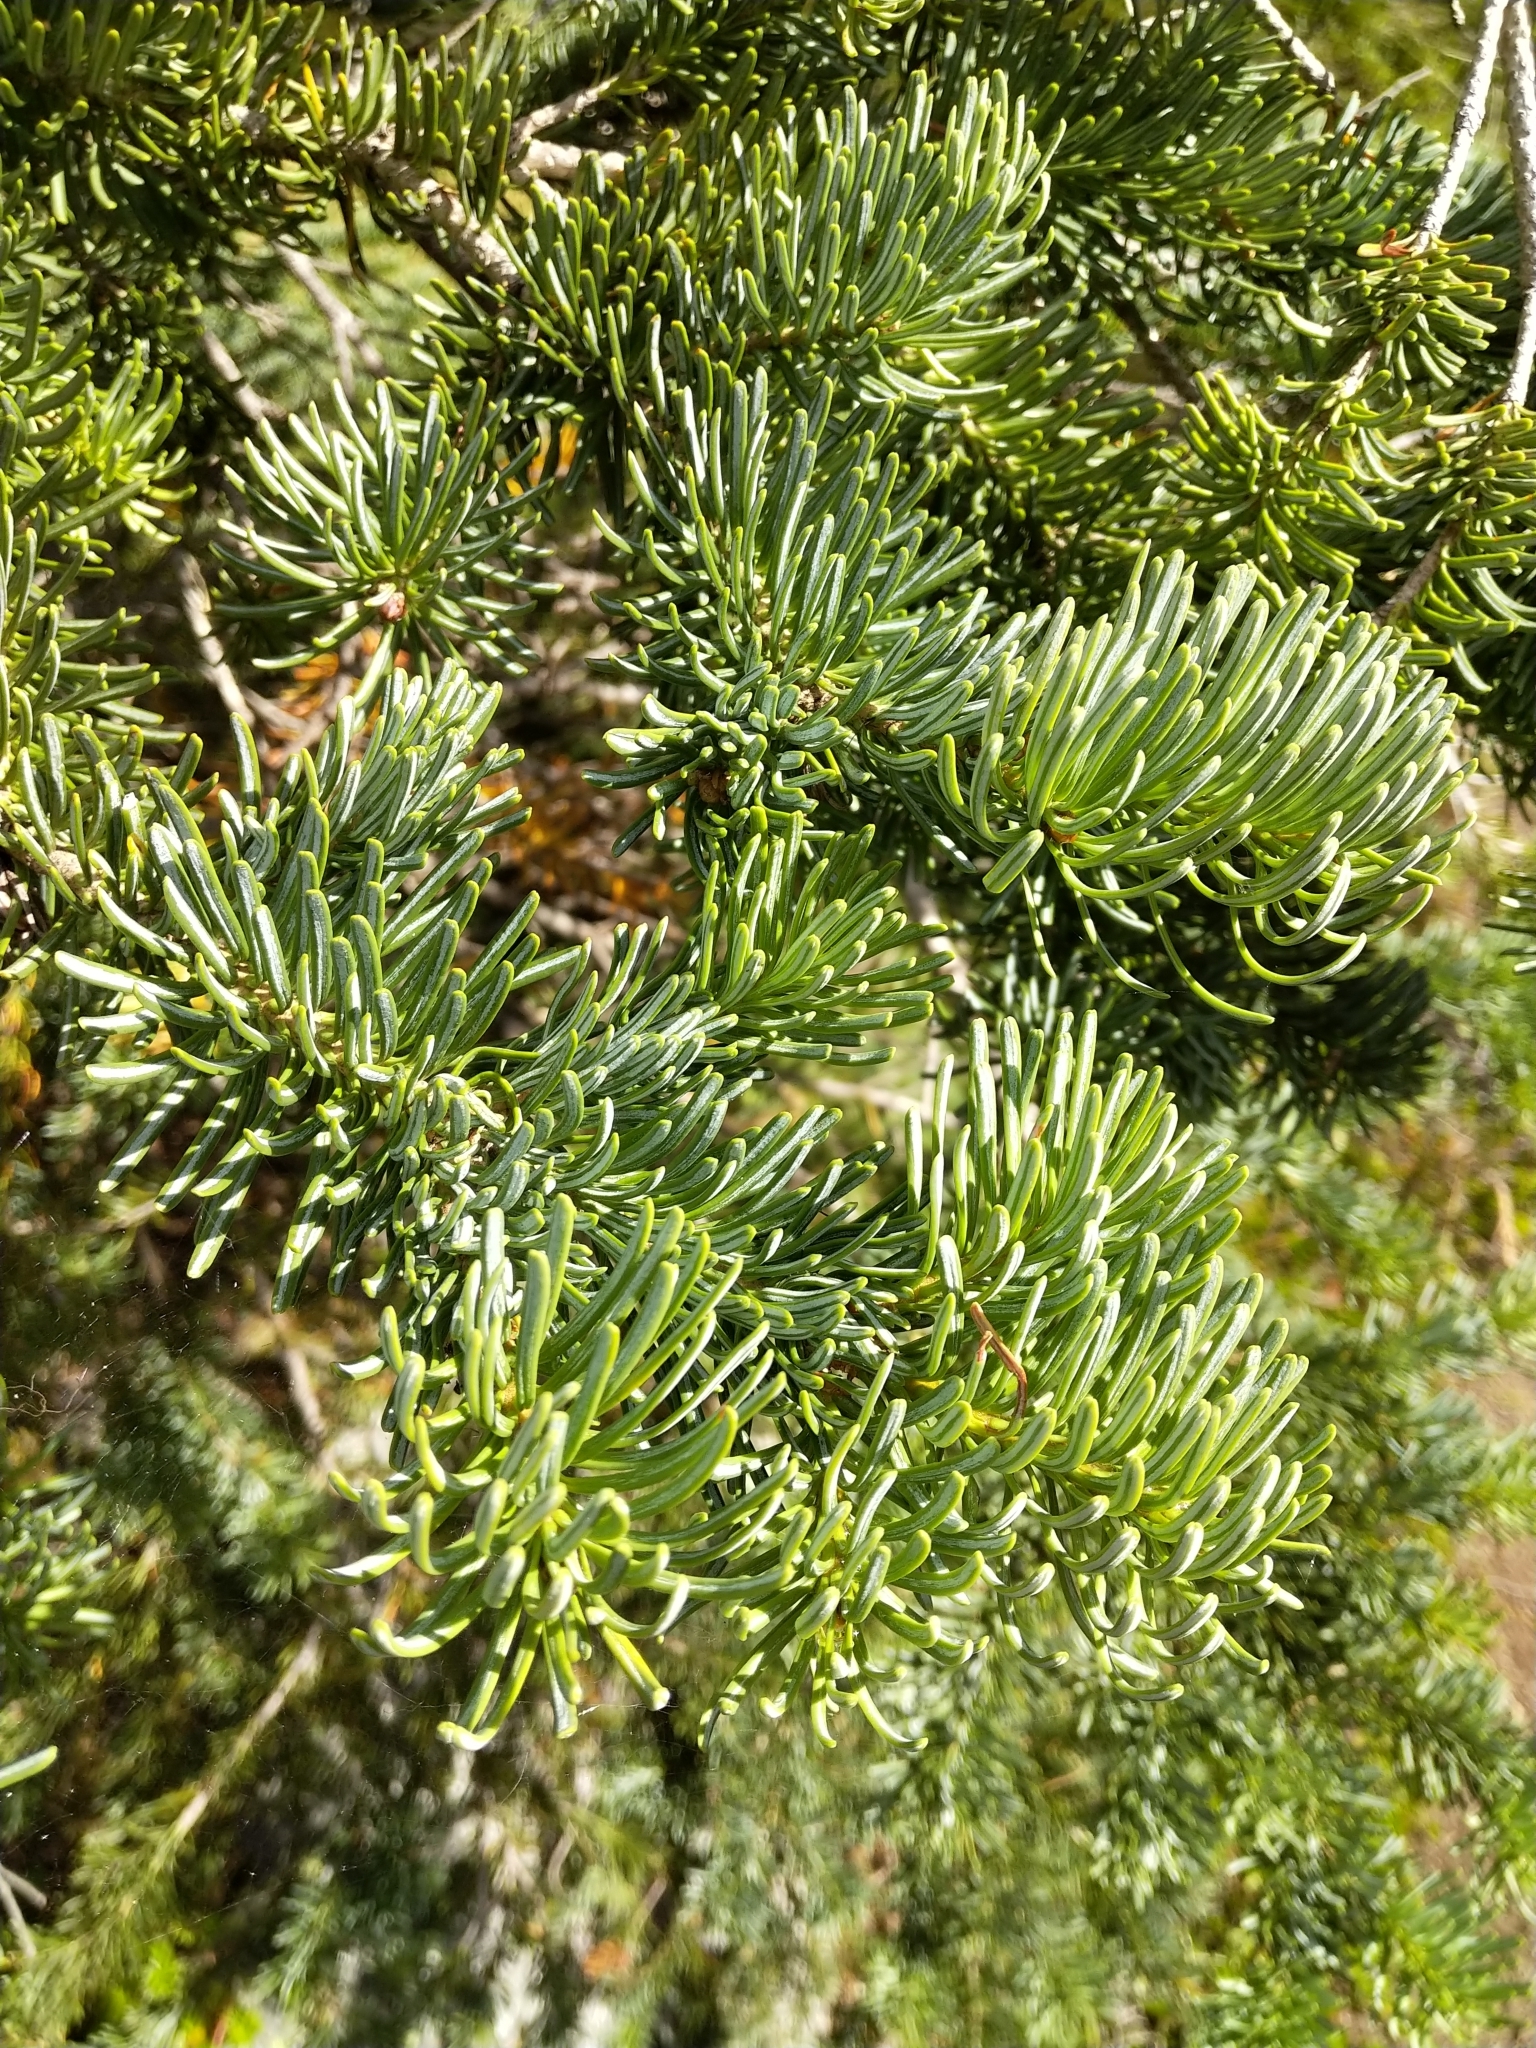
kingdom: Plantae
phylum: Tracheophyta
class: Pinopsida
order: Pinales
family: Pinaceae
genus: Abies
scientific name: Abies lasiocarpa
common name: Subalpine fir
